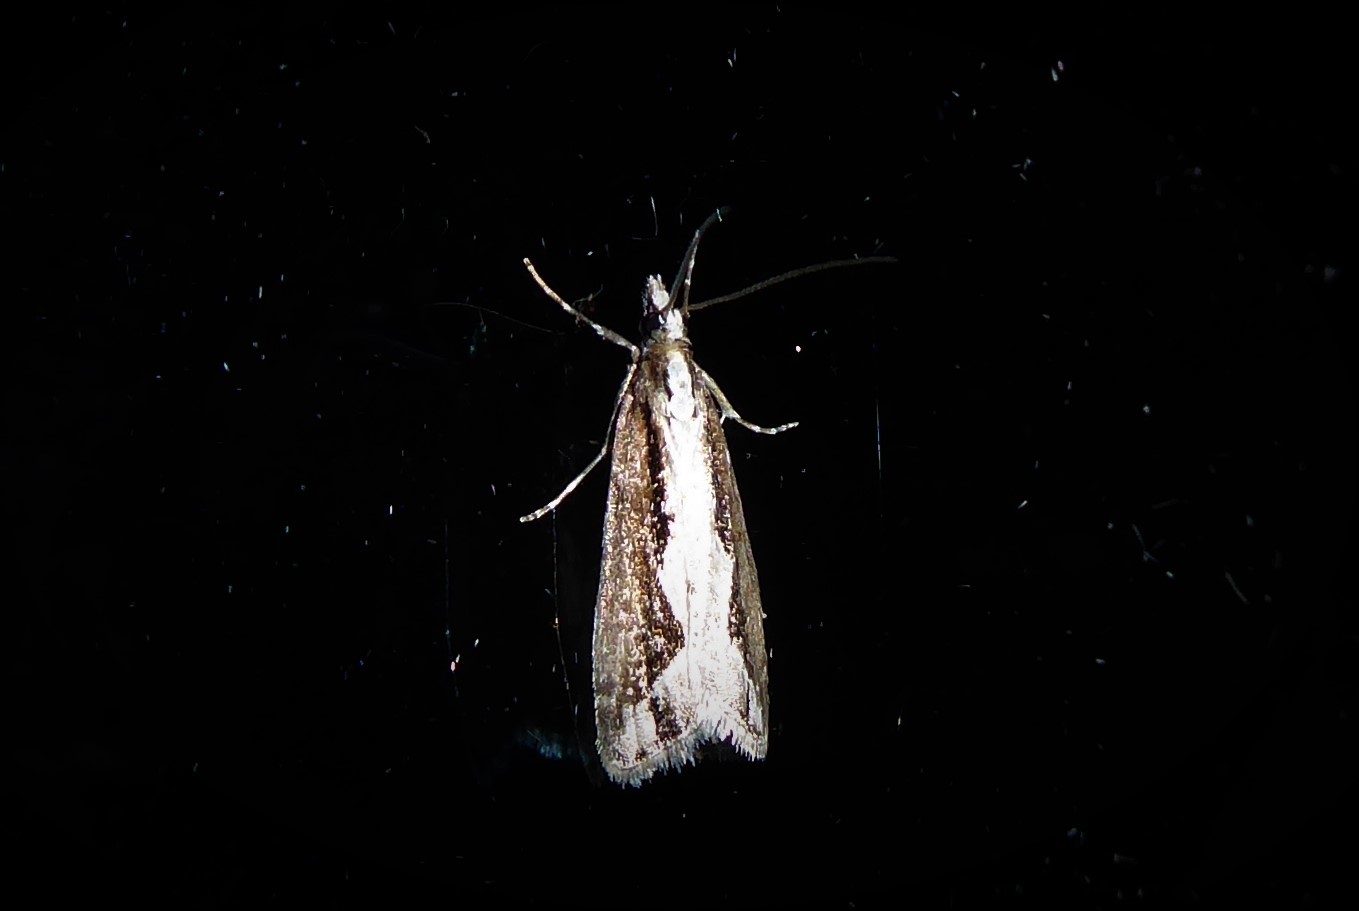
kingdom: Animalia
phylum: Arthropoda
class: Insecta
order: Lepidoptera
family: Crambidae
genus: Eudonia
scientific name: Eudonia steropaea
